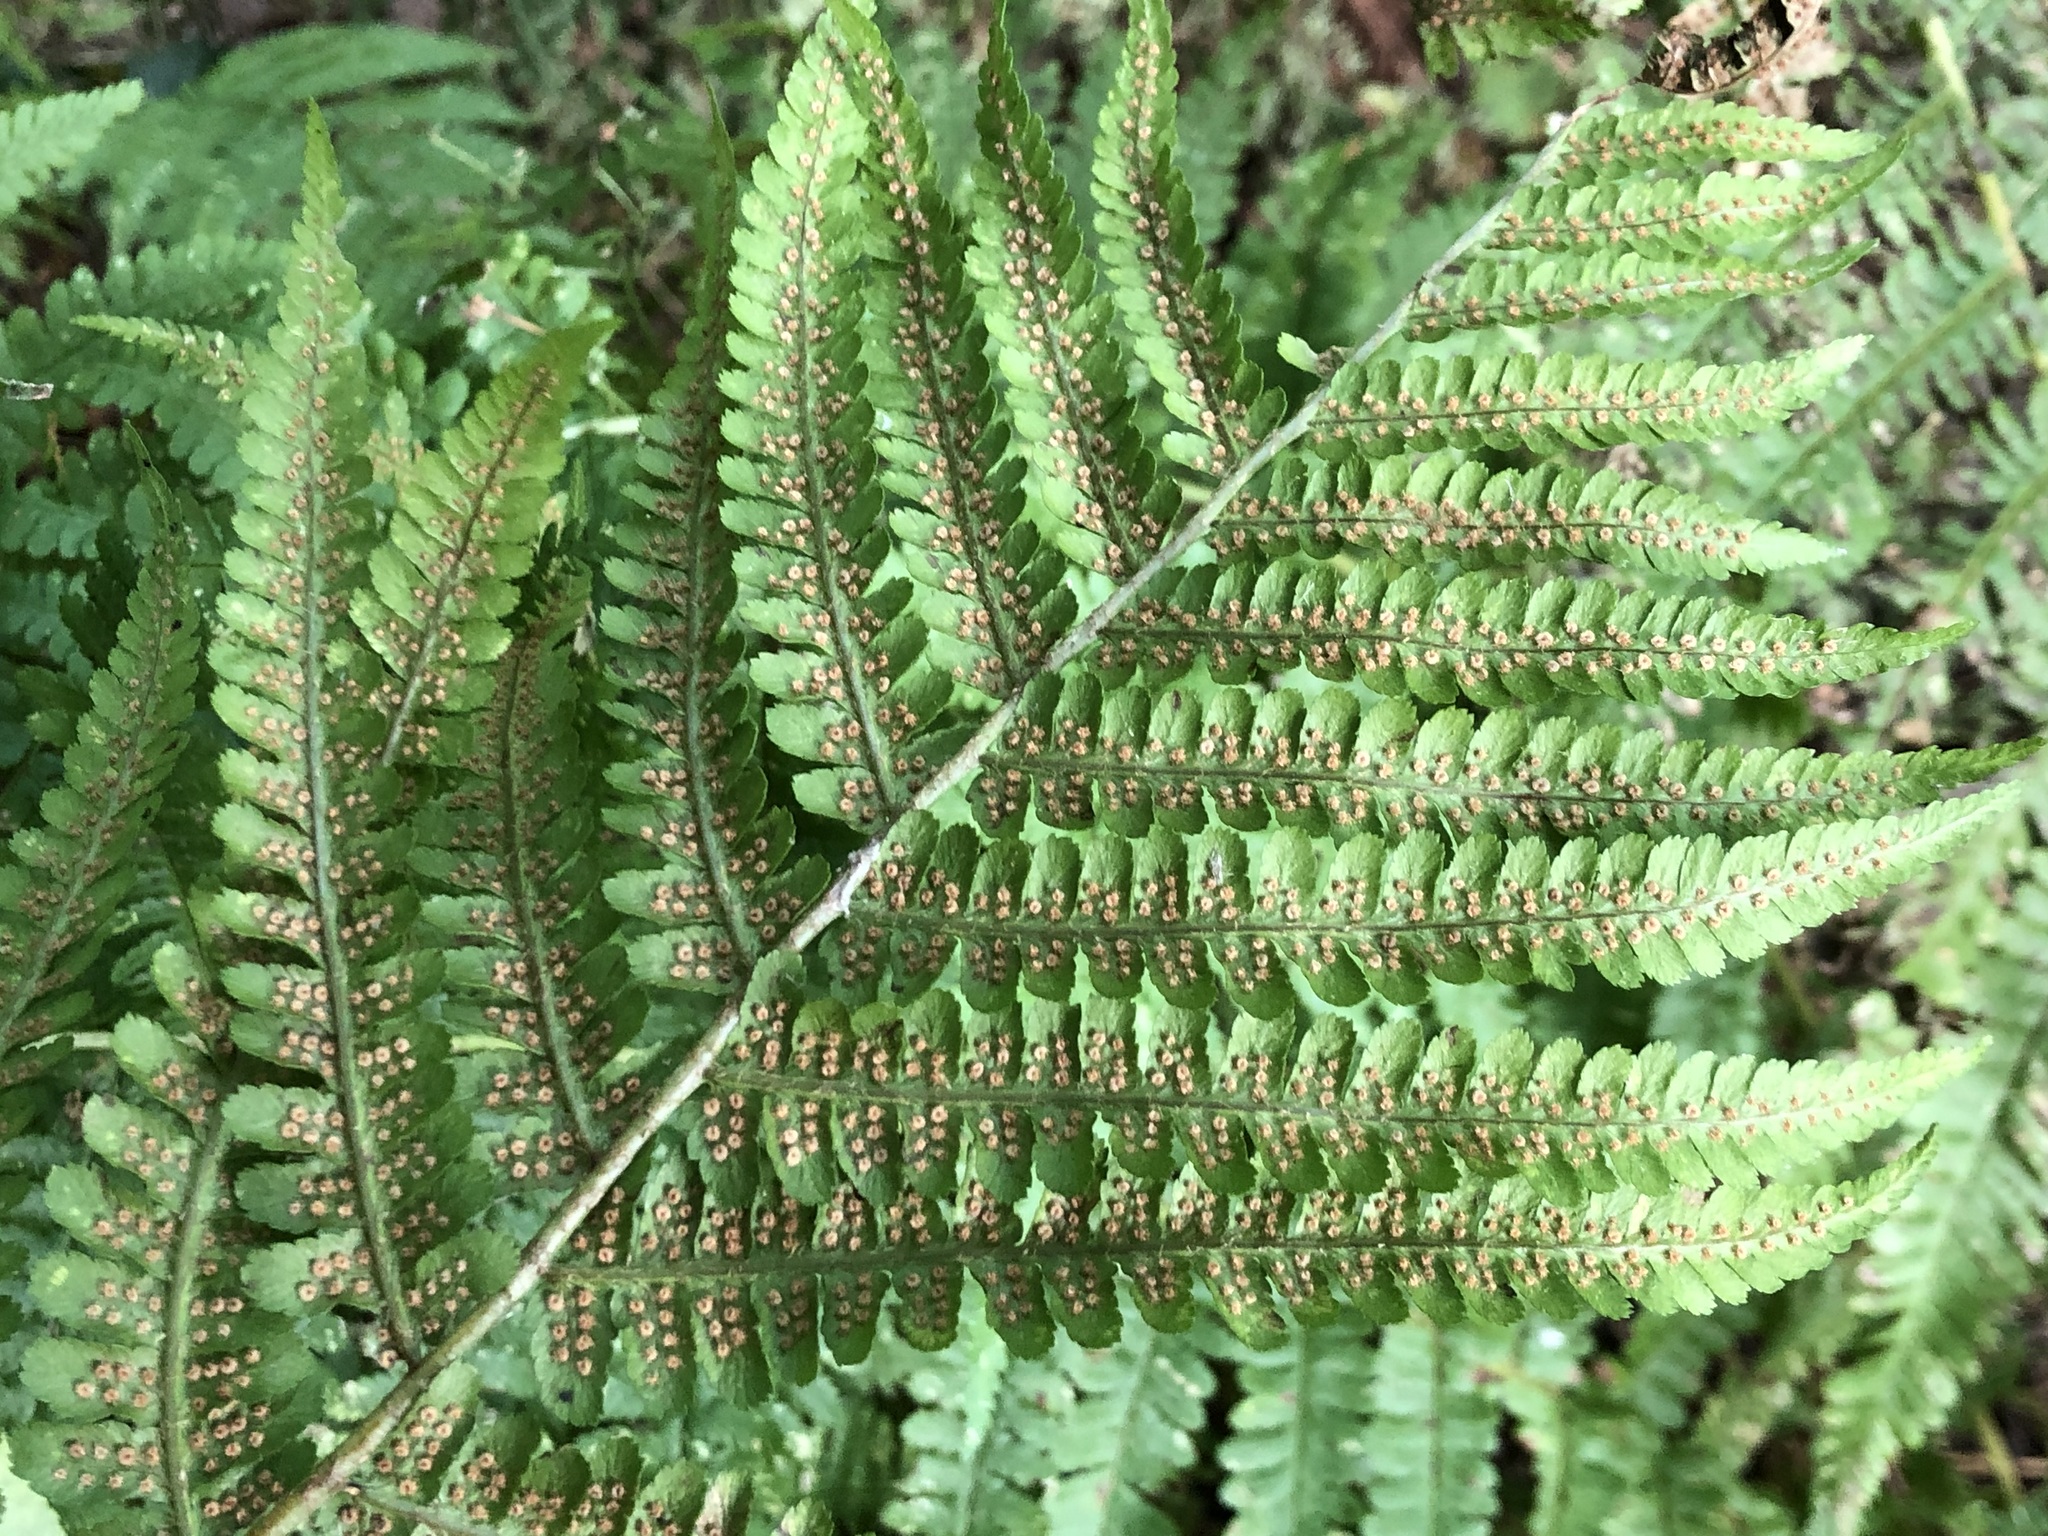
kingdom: Plantae
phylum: Tracheophyta
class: Polypodiopsida
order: Polypodiales
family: Dryopteridaceae
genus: Dryopteris
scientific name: Dryopteris filix-mas
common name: Male fern
